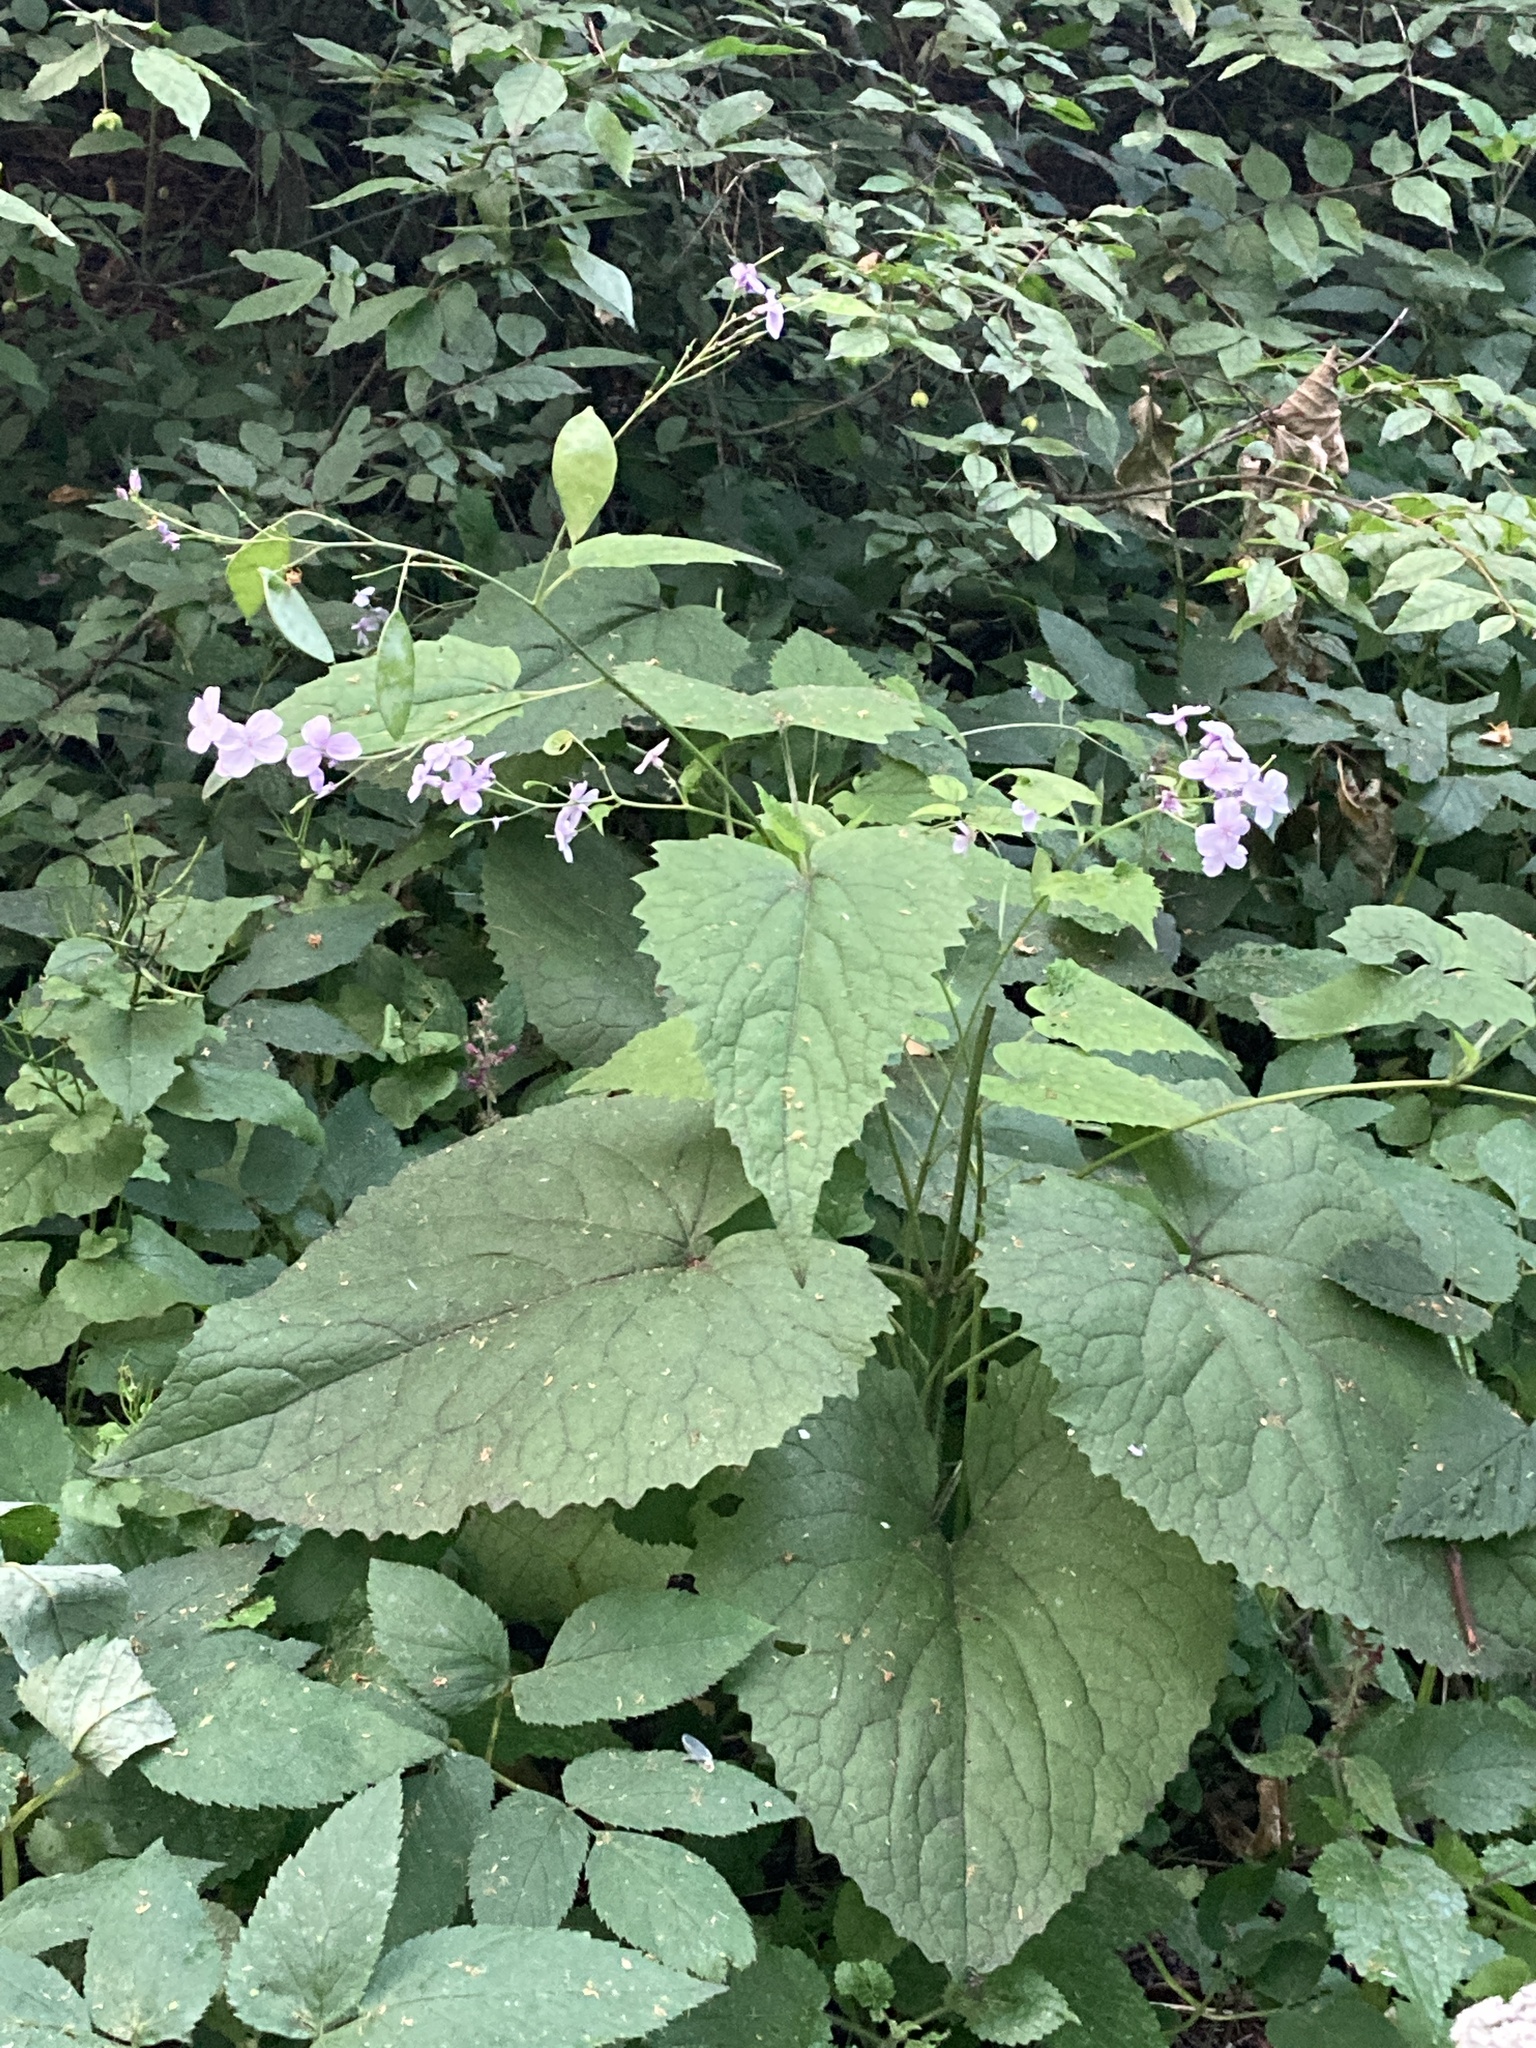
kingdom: Plantae
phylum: Tracheophyta
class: Magnoliopsida
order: Brassicales
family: Brassicaceae
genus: Lunaria
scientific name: Lunaria rediviva
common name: Perennial honesty
